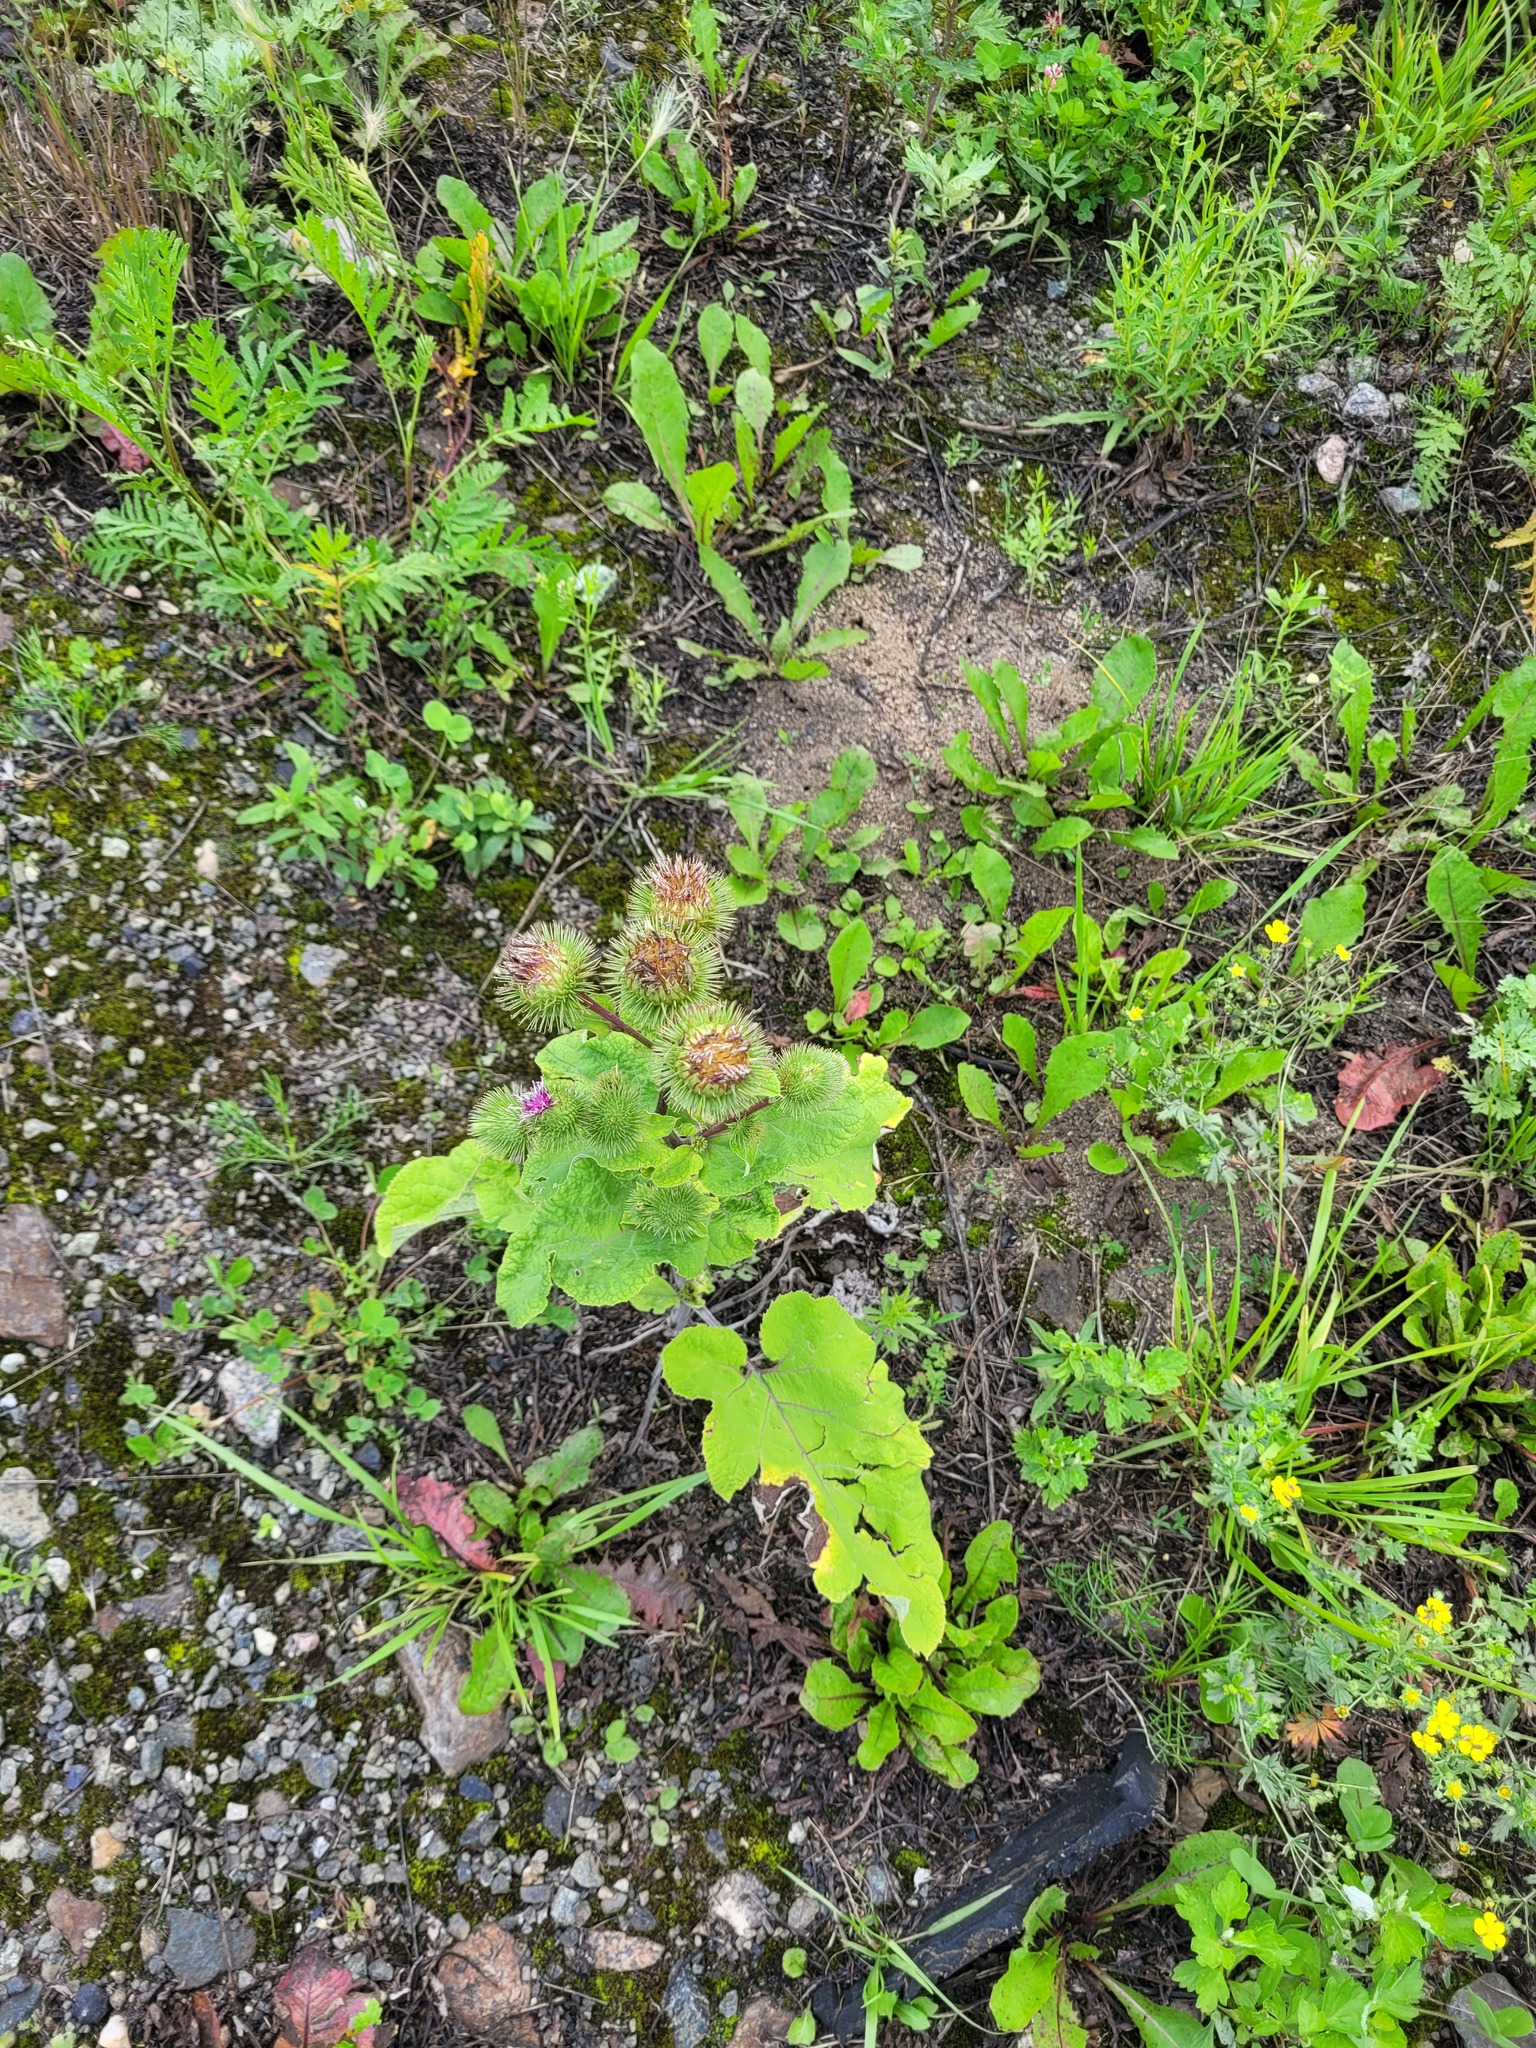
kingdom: Plantae
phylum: Tracheophyta
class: Magnoliopsida
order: Asterales
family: Asteraceae
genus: Arctium
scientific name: Arctium lappa
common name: Greater burdock
